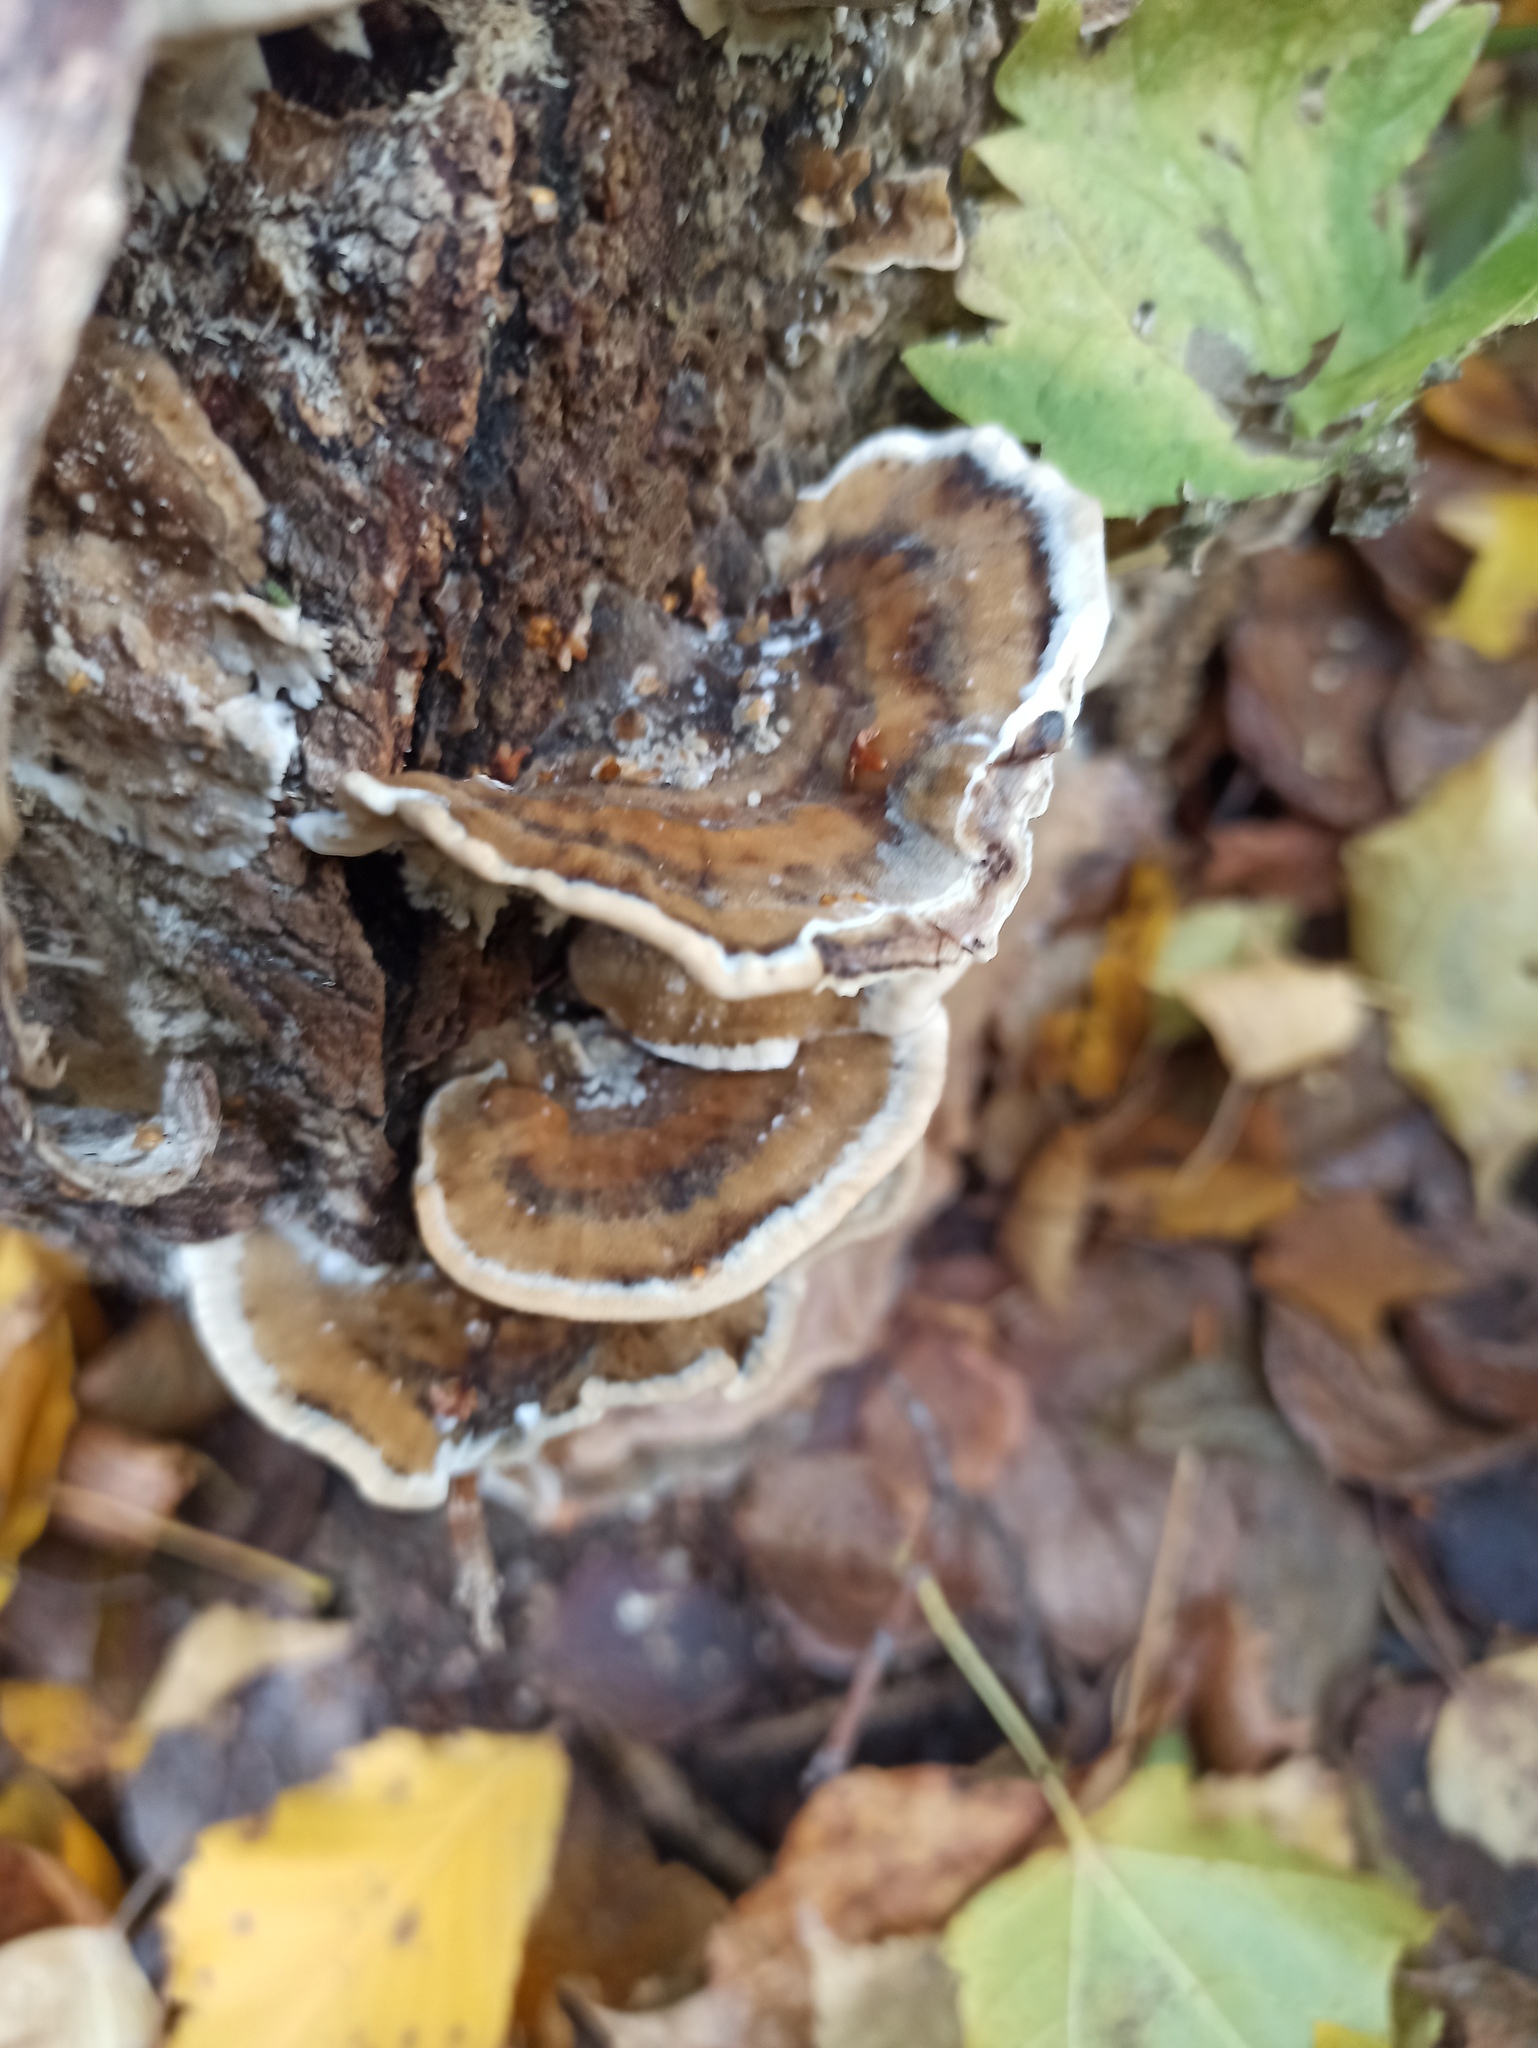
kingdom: Fungi
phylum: Basidiomycota
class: Agaricomycetes
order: Polyporales
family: Phanerochaetaceae
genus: Bjerkandera
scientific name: Bjerkandera adusta
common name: Smoky bracket
